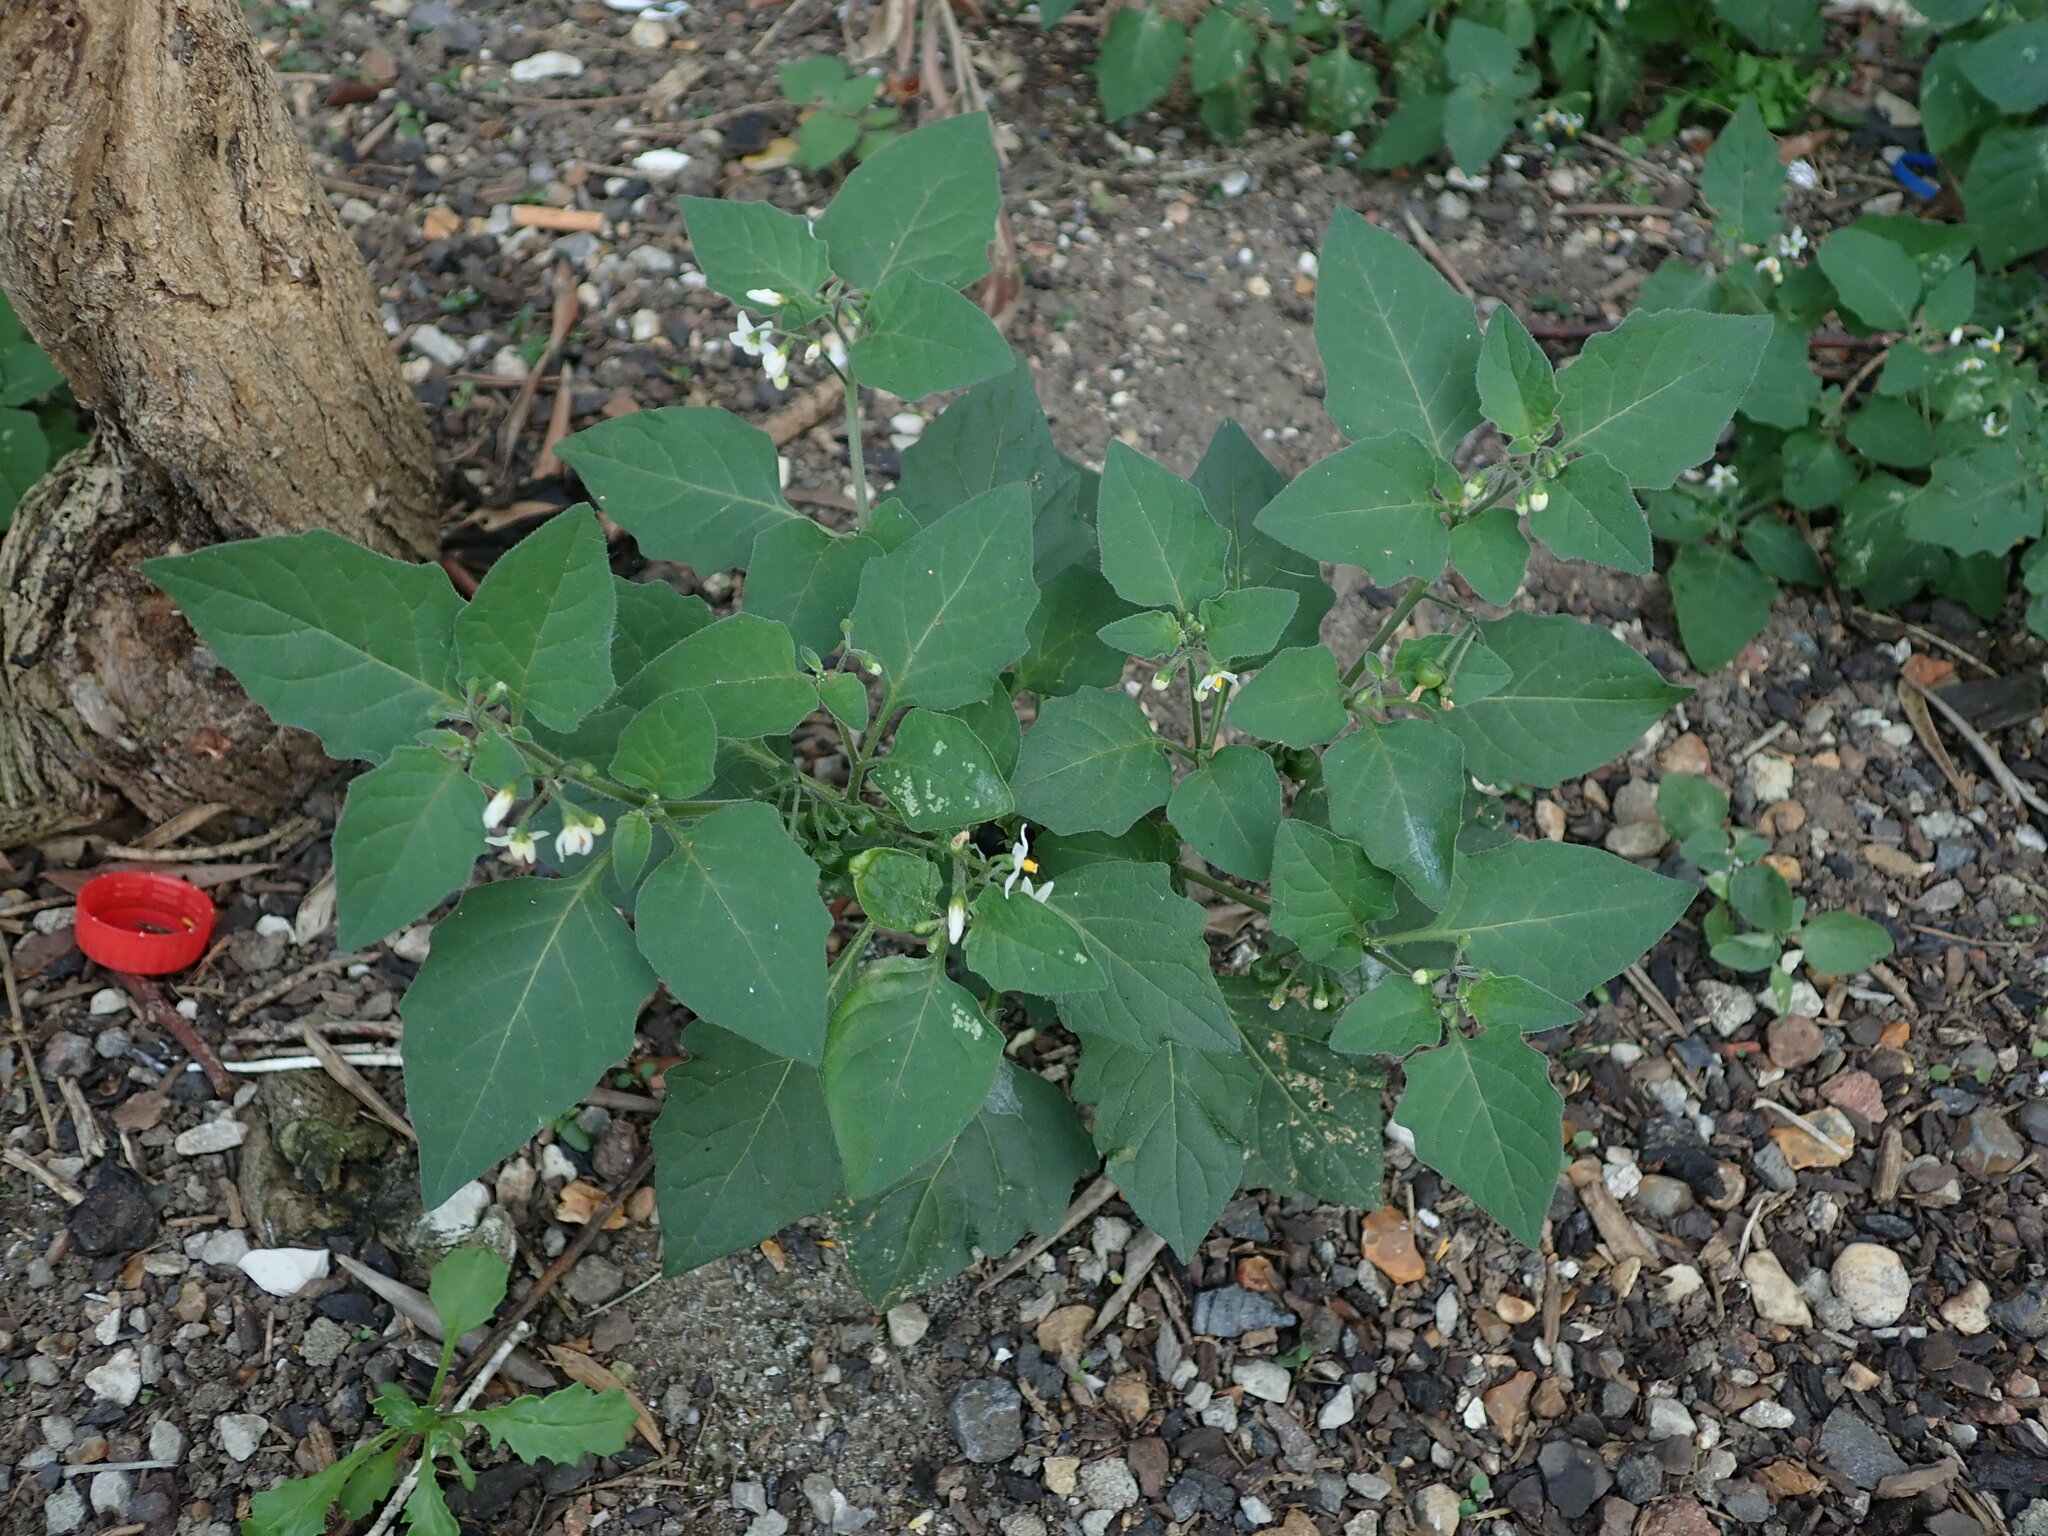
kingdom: Plantae
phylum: Tracheophyta
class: Magnoliopsida
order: Solanales
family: Solanaceae
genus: Solanum
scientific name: Solanum nigrum
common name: Black nightshade
